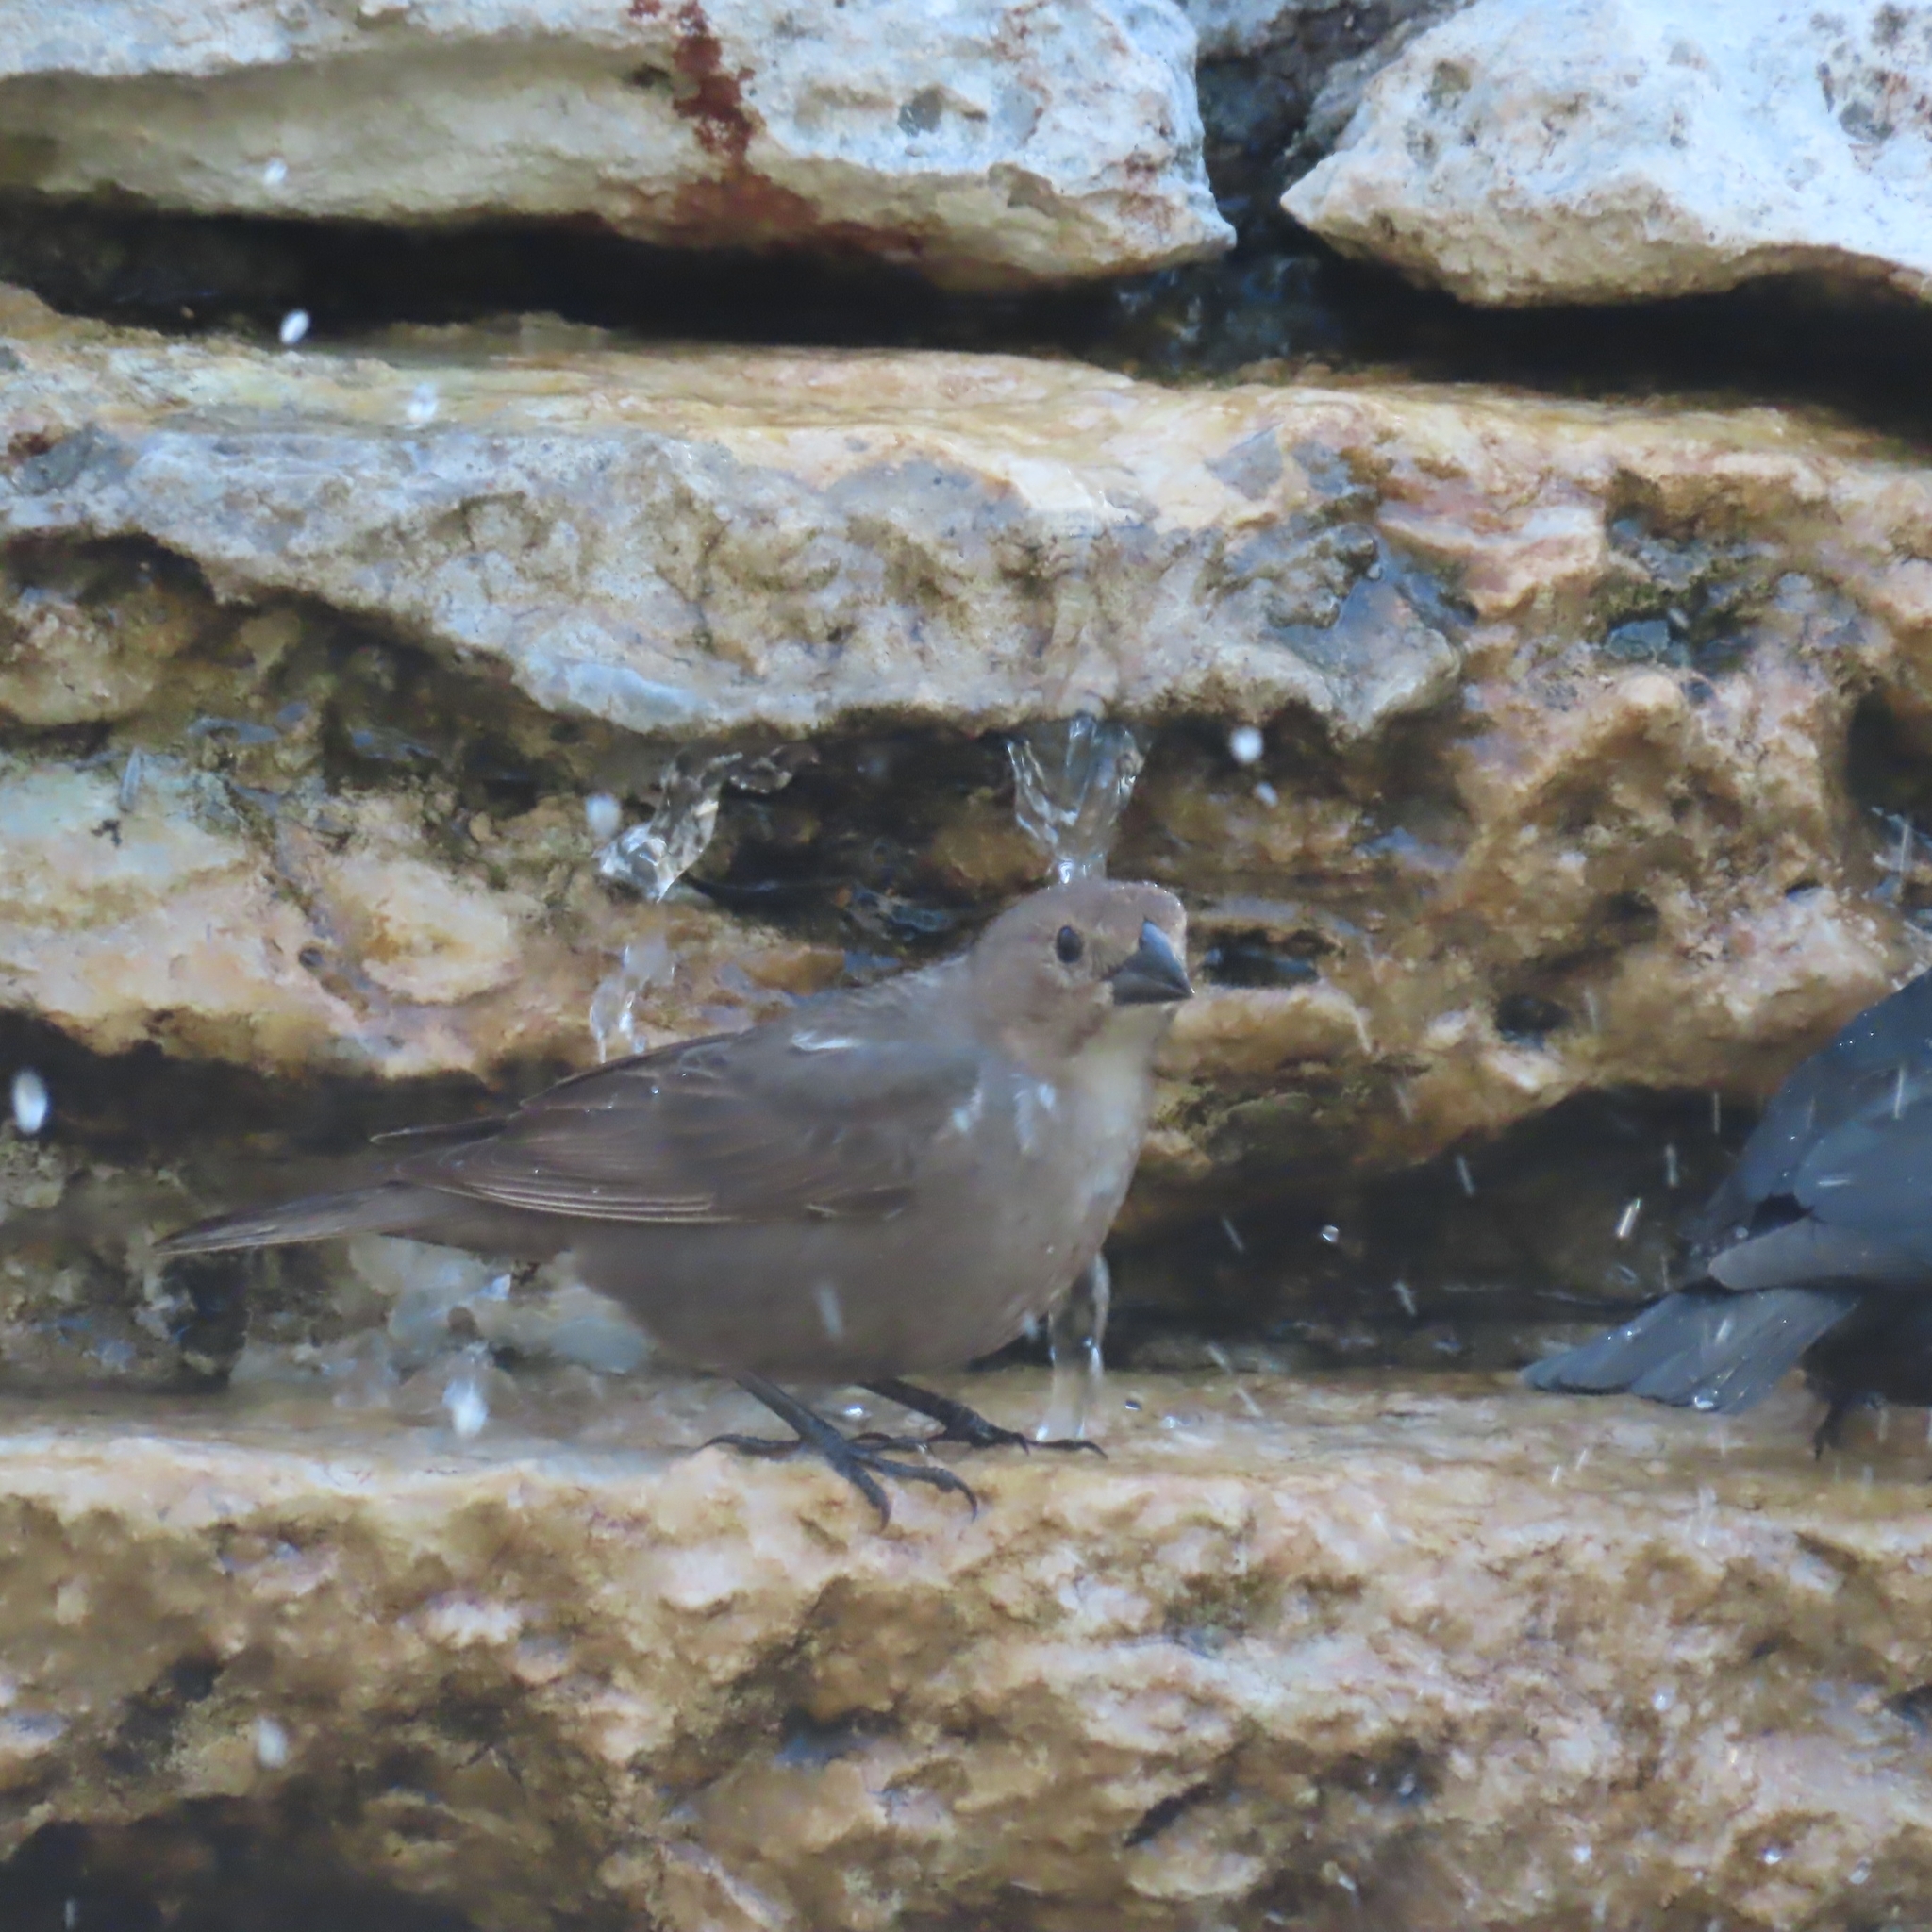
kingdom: Animalia
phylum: Chordata
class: Aves
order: Passeriformes
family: Icteridae
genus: Molothrus
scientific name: Molothrus ater
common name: Brown-headed cowbird
